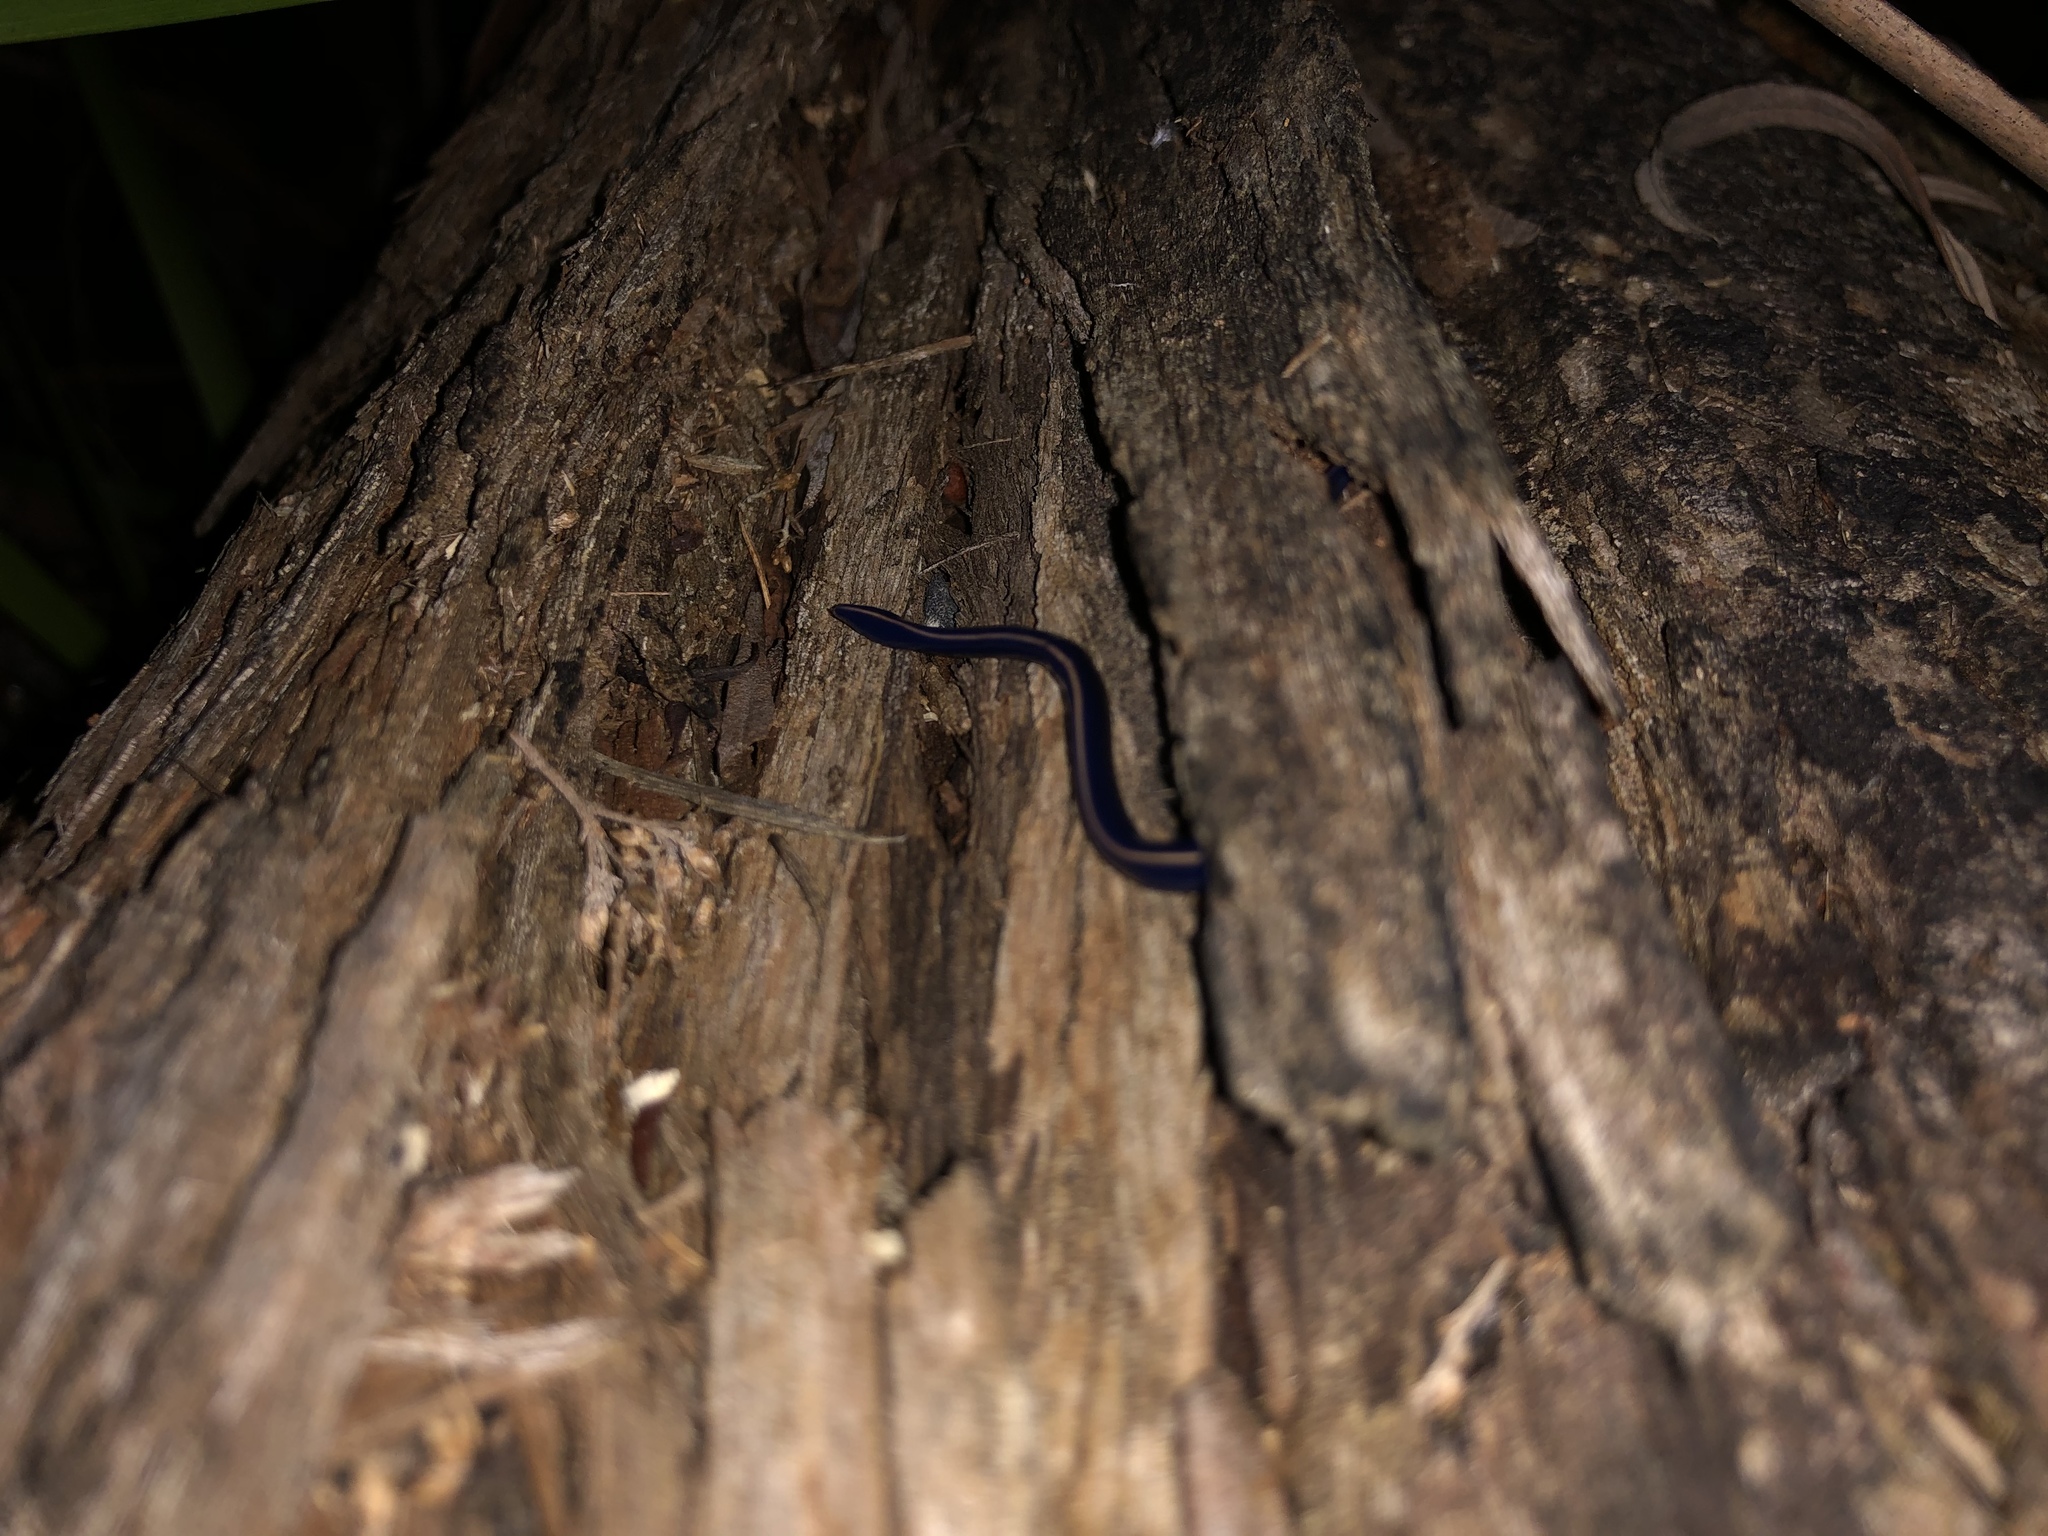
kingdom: Animalia
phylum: Platyhelminthes
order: Tricladida
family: Geoplanidae
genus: Caenoplana
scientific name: Caenoplana coerulea
